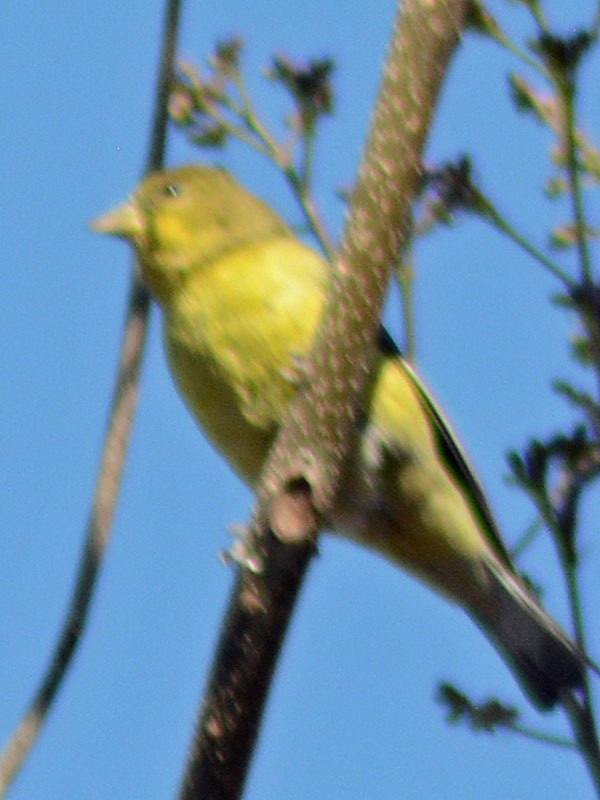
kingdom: Animalia
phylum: Chordata
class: Aves
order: Passeriformes
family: Fringillidae
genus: Spinus
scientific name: Spinus psaltria
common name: Lesser goldfinch
